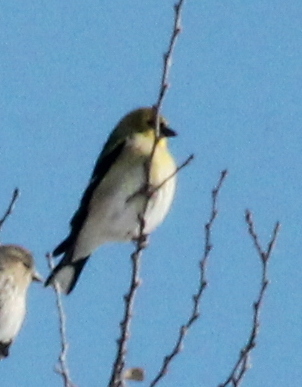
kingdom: Animalia
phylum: Chordata
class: Aves
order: Passeriformes
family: Fringillidae
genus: Spinus
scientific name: Spinus tristis
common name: American goldfinch
